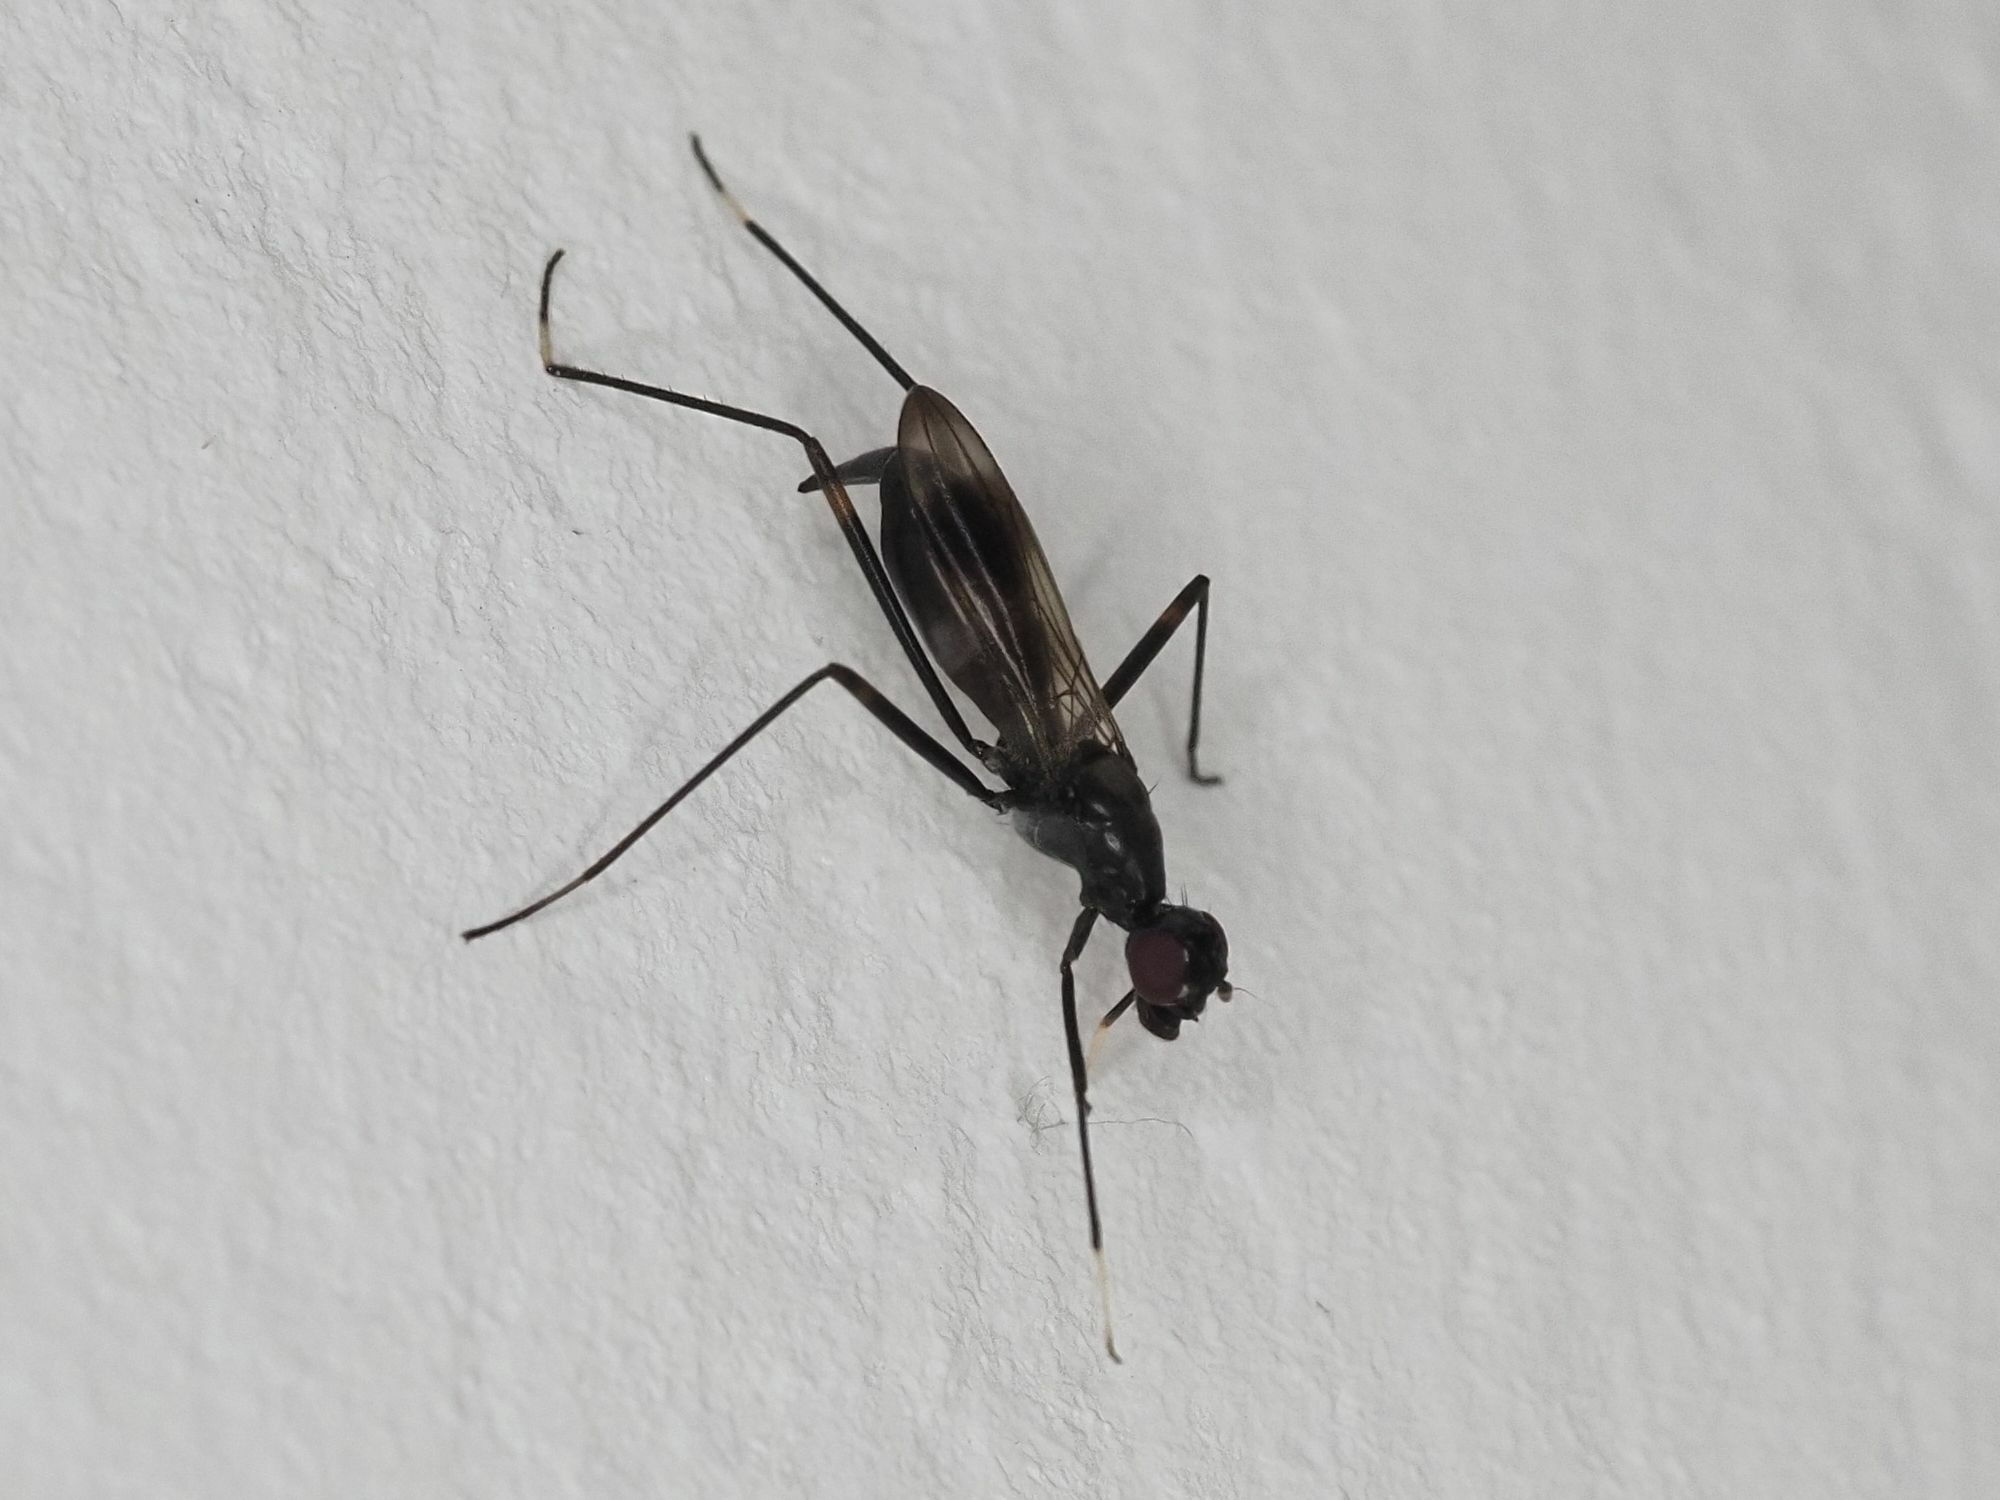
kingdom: Animalia
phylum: Arthropoda
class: Insecta
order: Diptera
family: Micropezidae
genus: Rainieria
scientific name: Rainieria calceata
